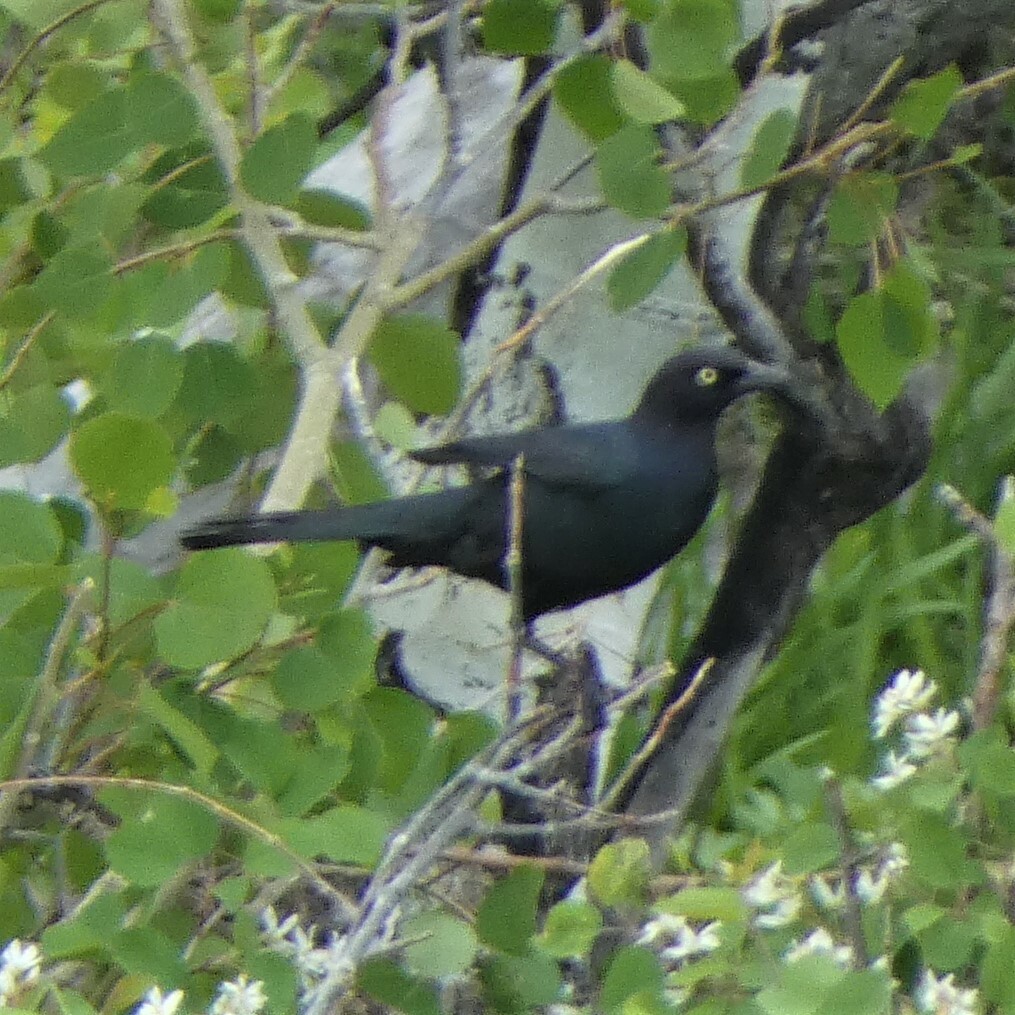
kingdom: Animalia
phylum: Chordata
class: Aves
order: Passeriformes
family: Icteridae
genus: Euphagus
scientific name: Euphagus cyanocephalus
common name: Brewer's blackbird
